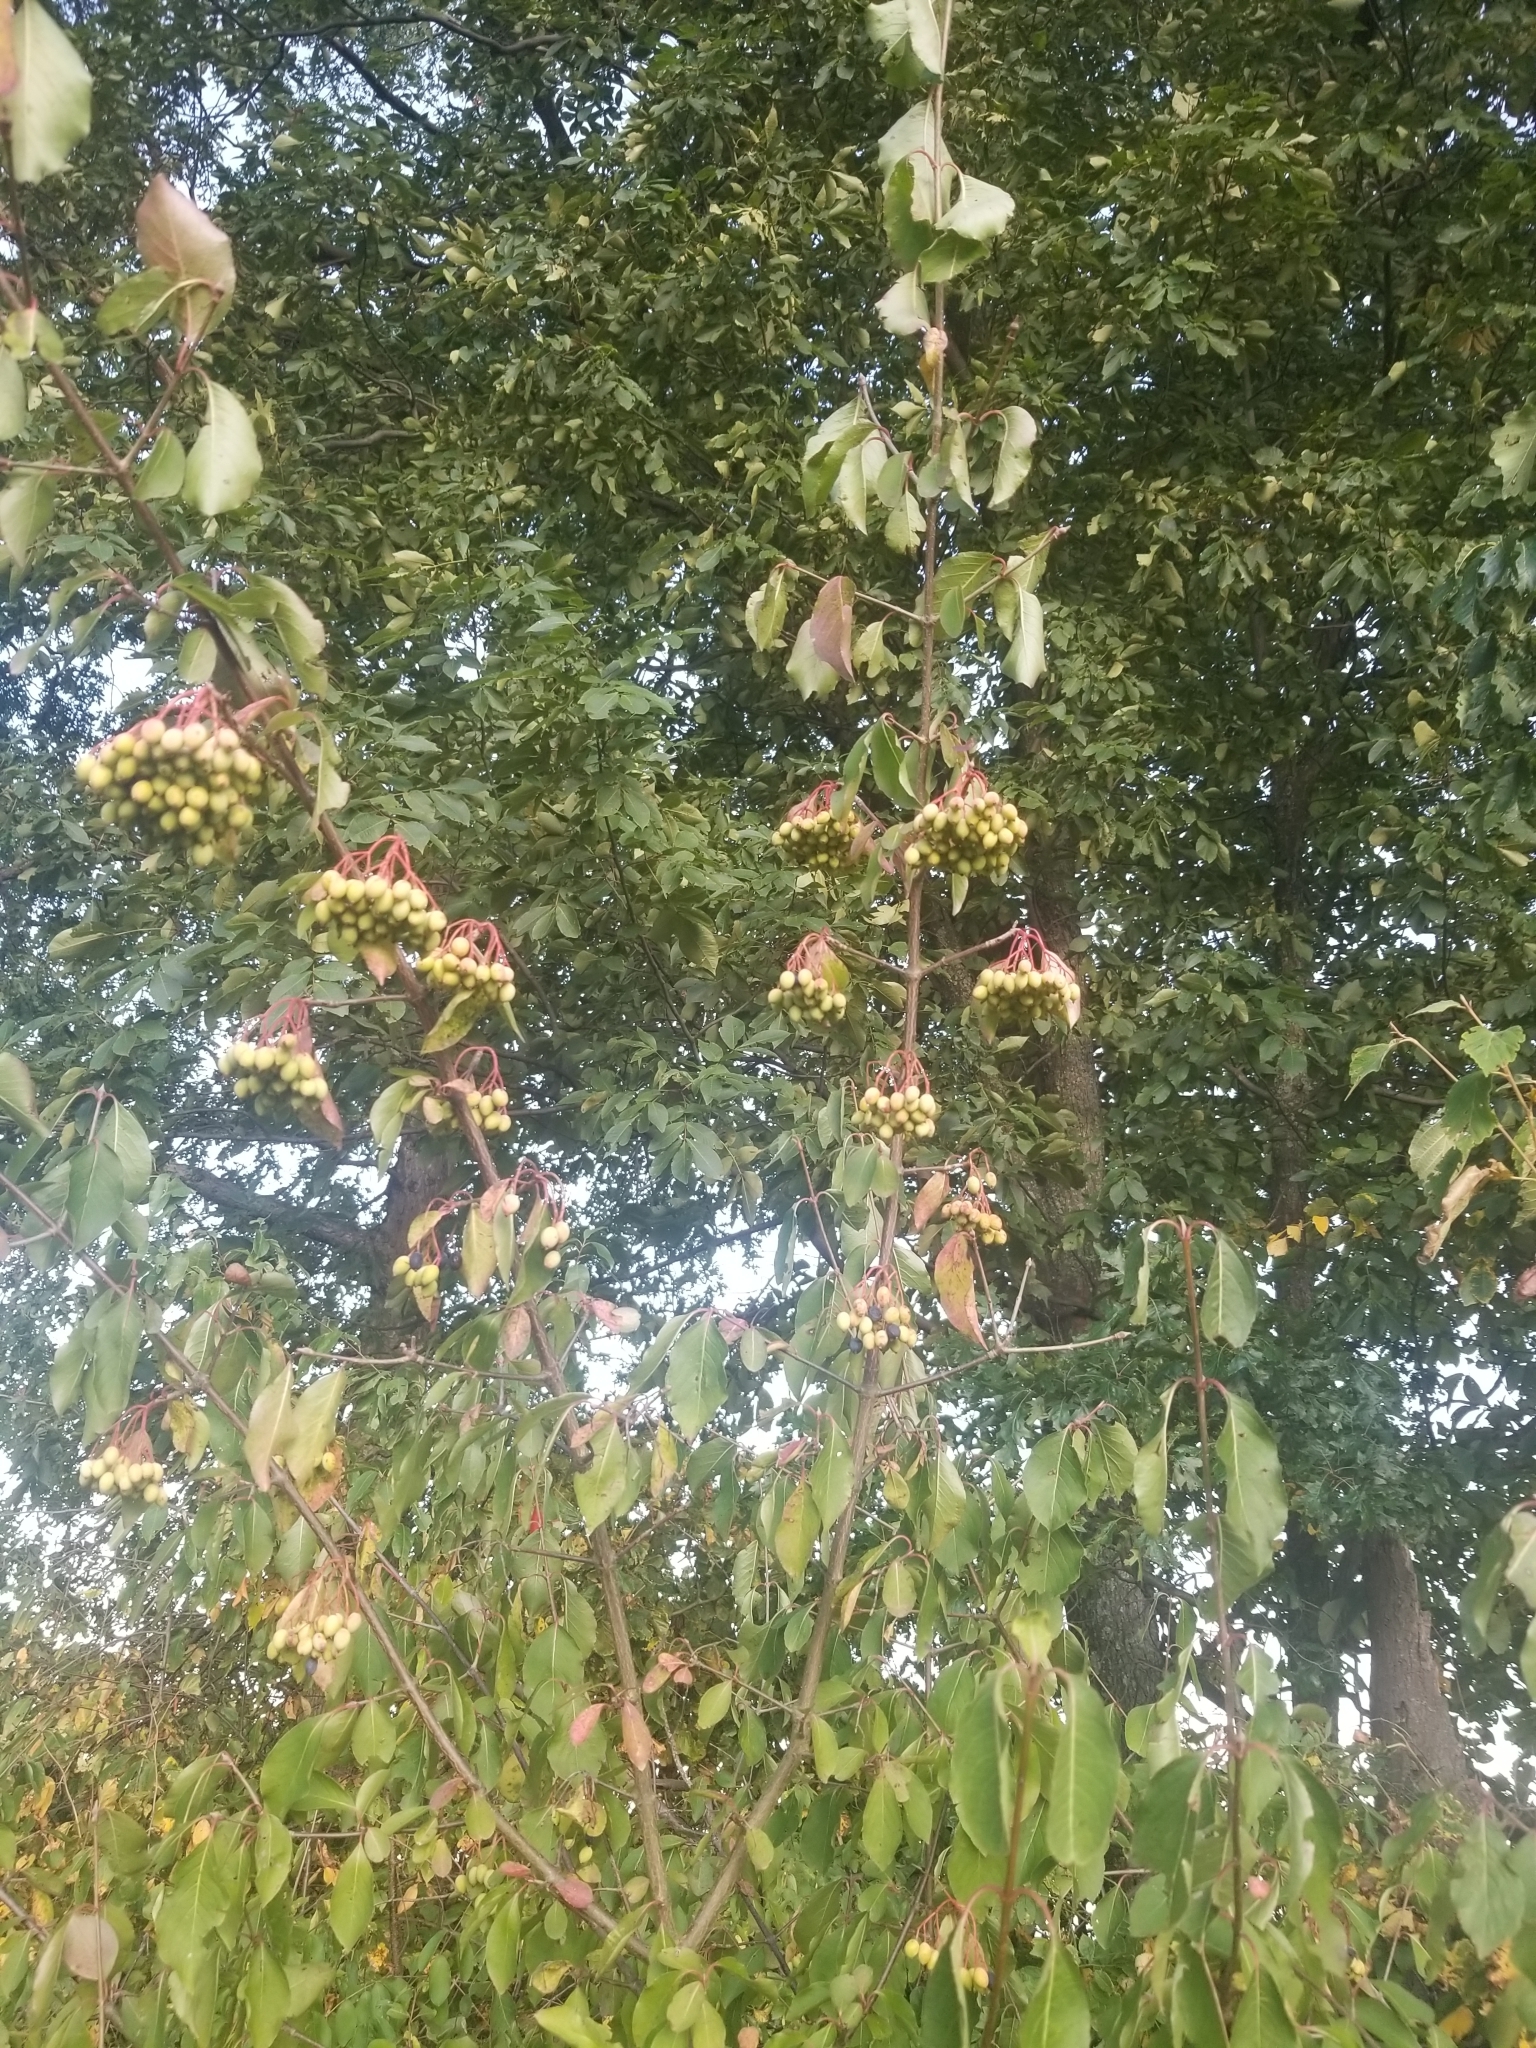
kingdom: Plantae
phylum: Tracheophyta
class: Magnoliopsida
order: Dipsacales
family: Viburnaceae
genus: Viburnum
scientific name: Viburnum prunifolium
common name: Black haw
